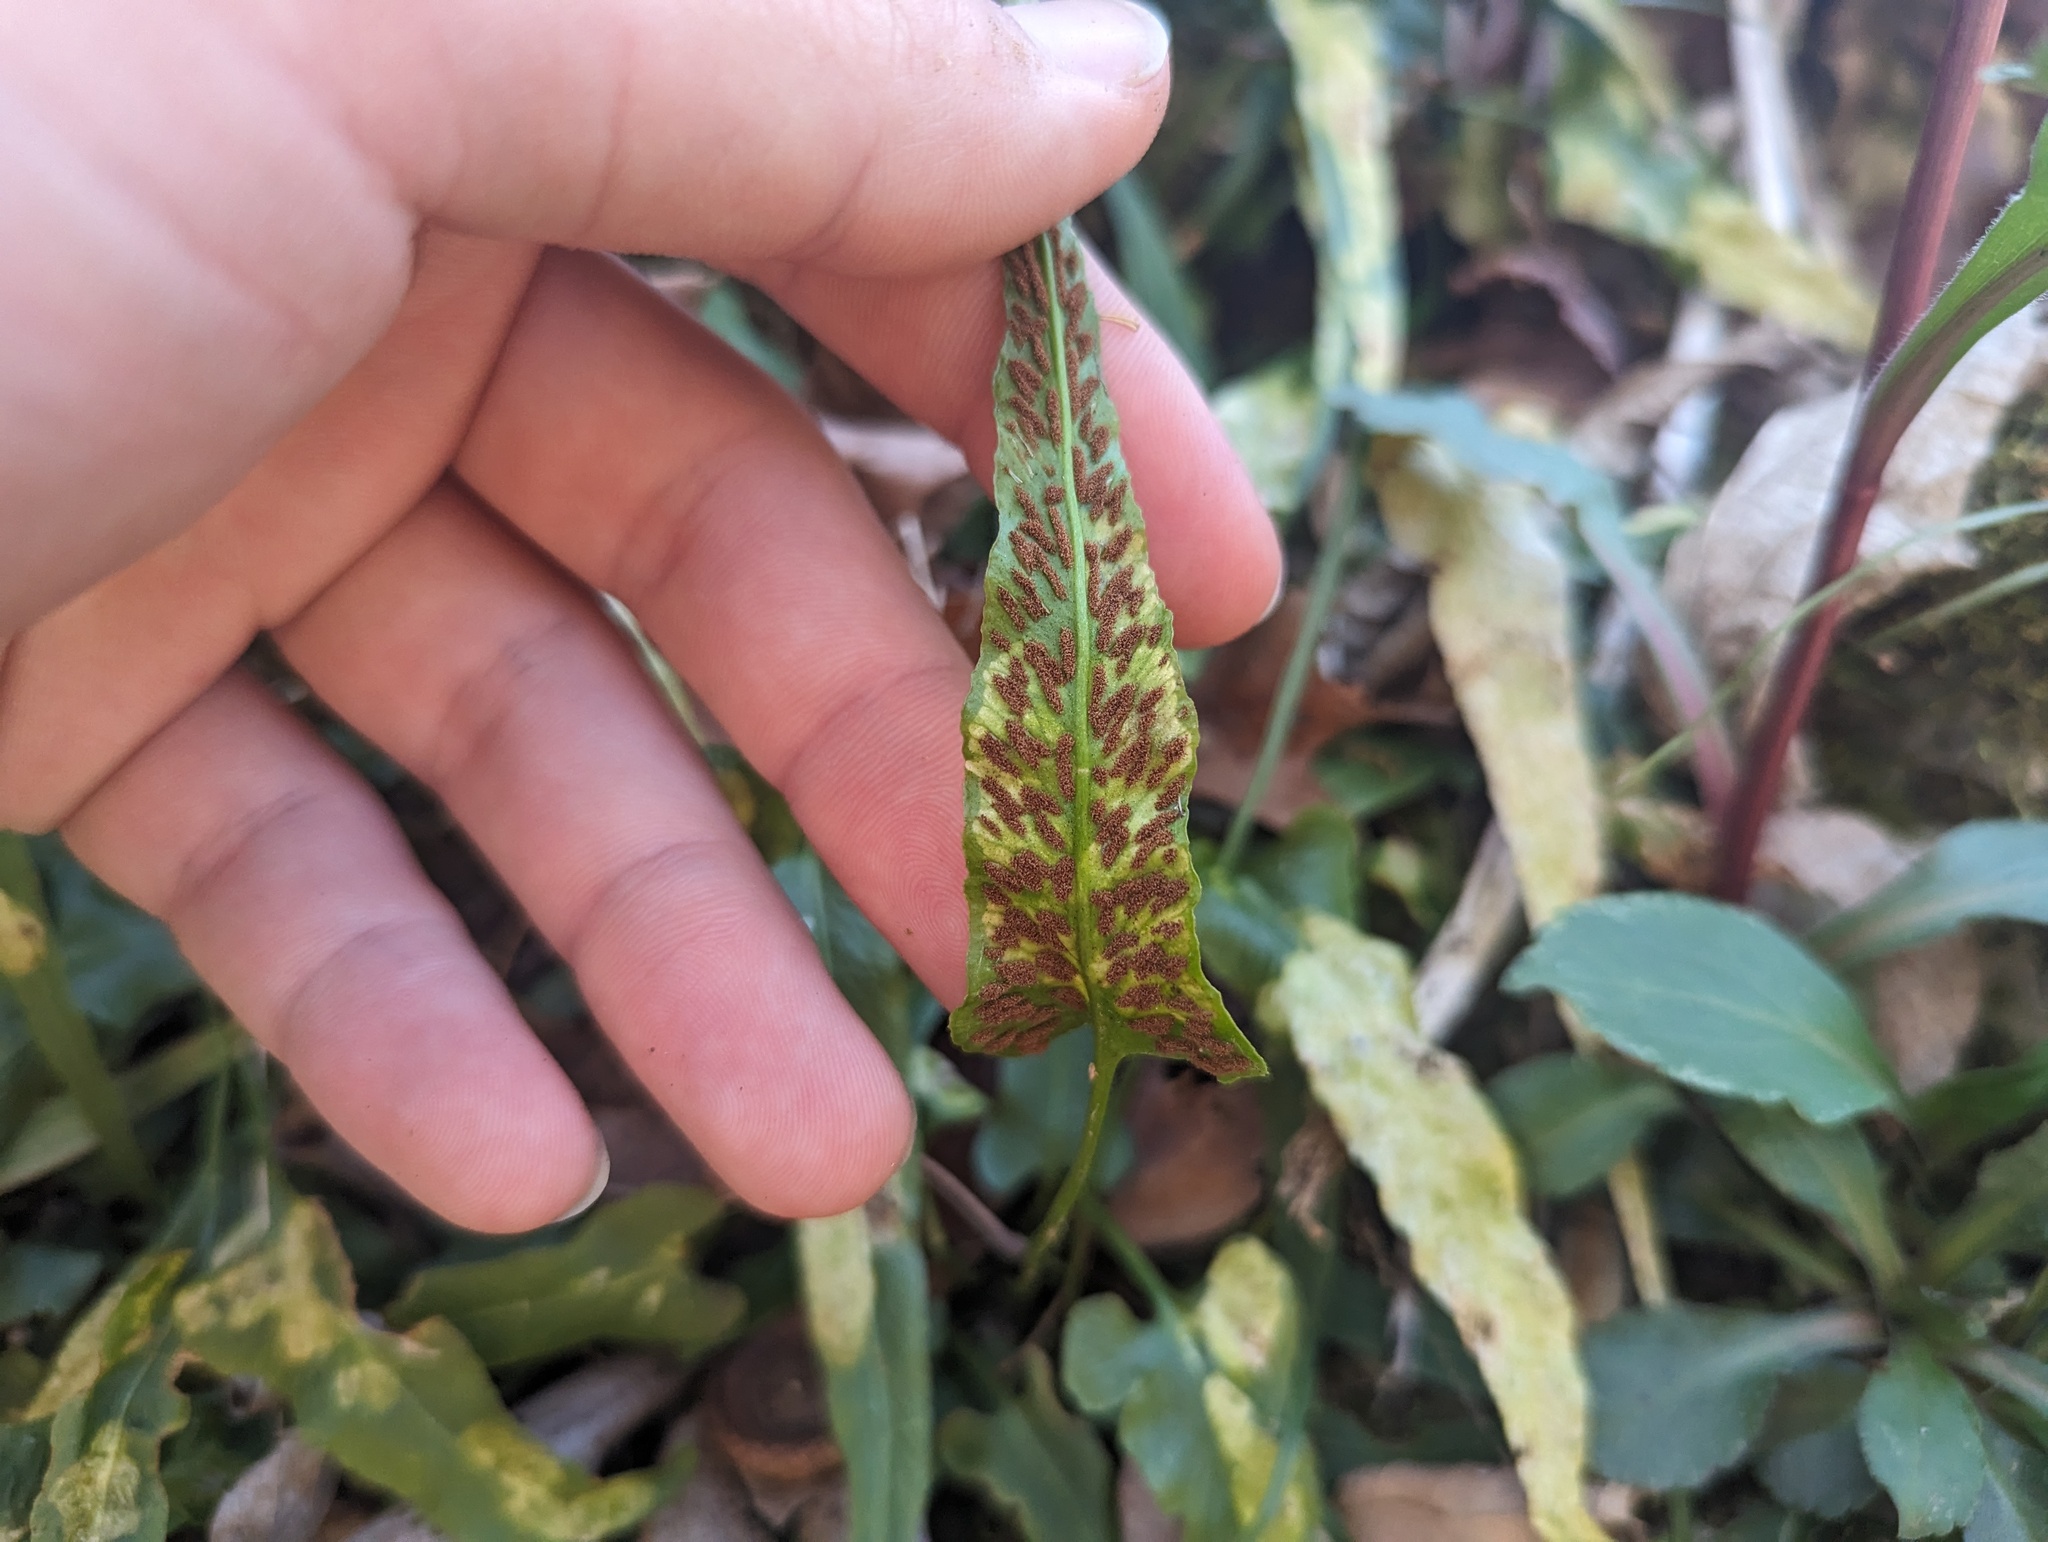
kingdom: Plantae
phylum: Tracheophyta
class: Polypodiopsida
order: Polypodiales
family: Aspleniaceae
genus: Asplenium
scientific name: Asplenium rhizophyllum
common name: Walking fern
